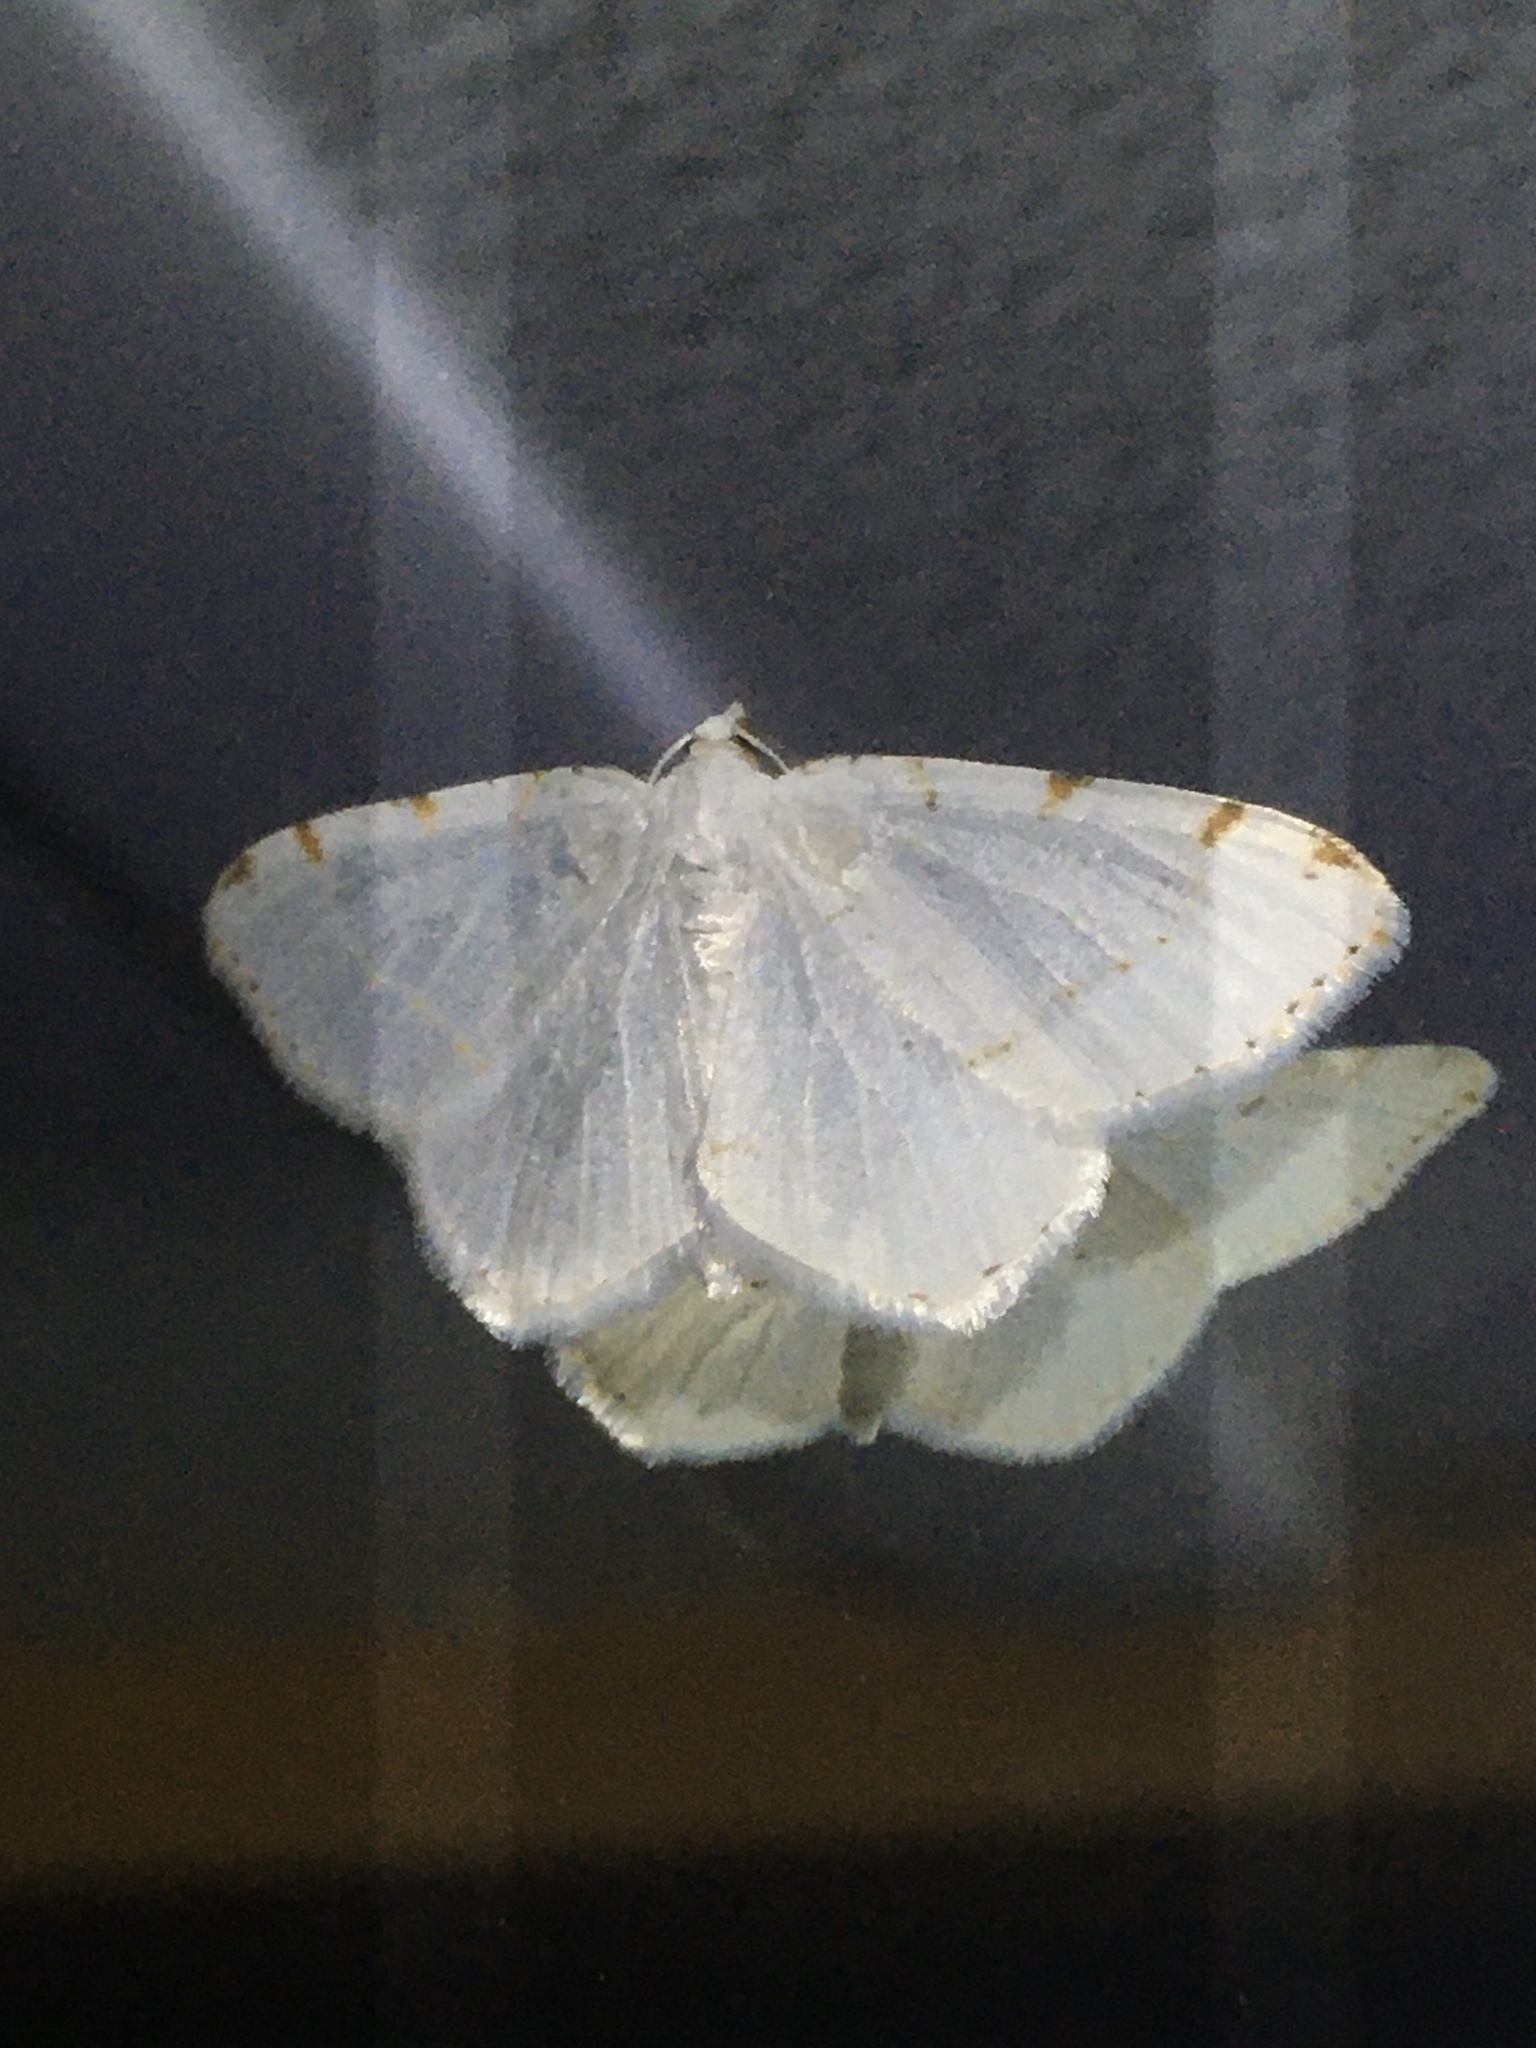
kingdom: Animalia
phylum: Arthropoda
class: Insecta
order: Lepidoptera
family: Geometridae
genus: Macaria
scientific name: Macaria pustularia
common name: Lesser maple spanworm moth
